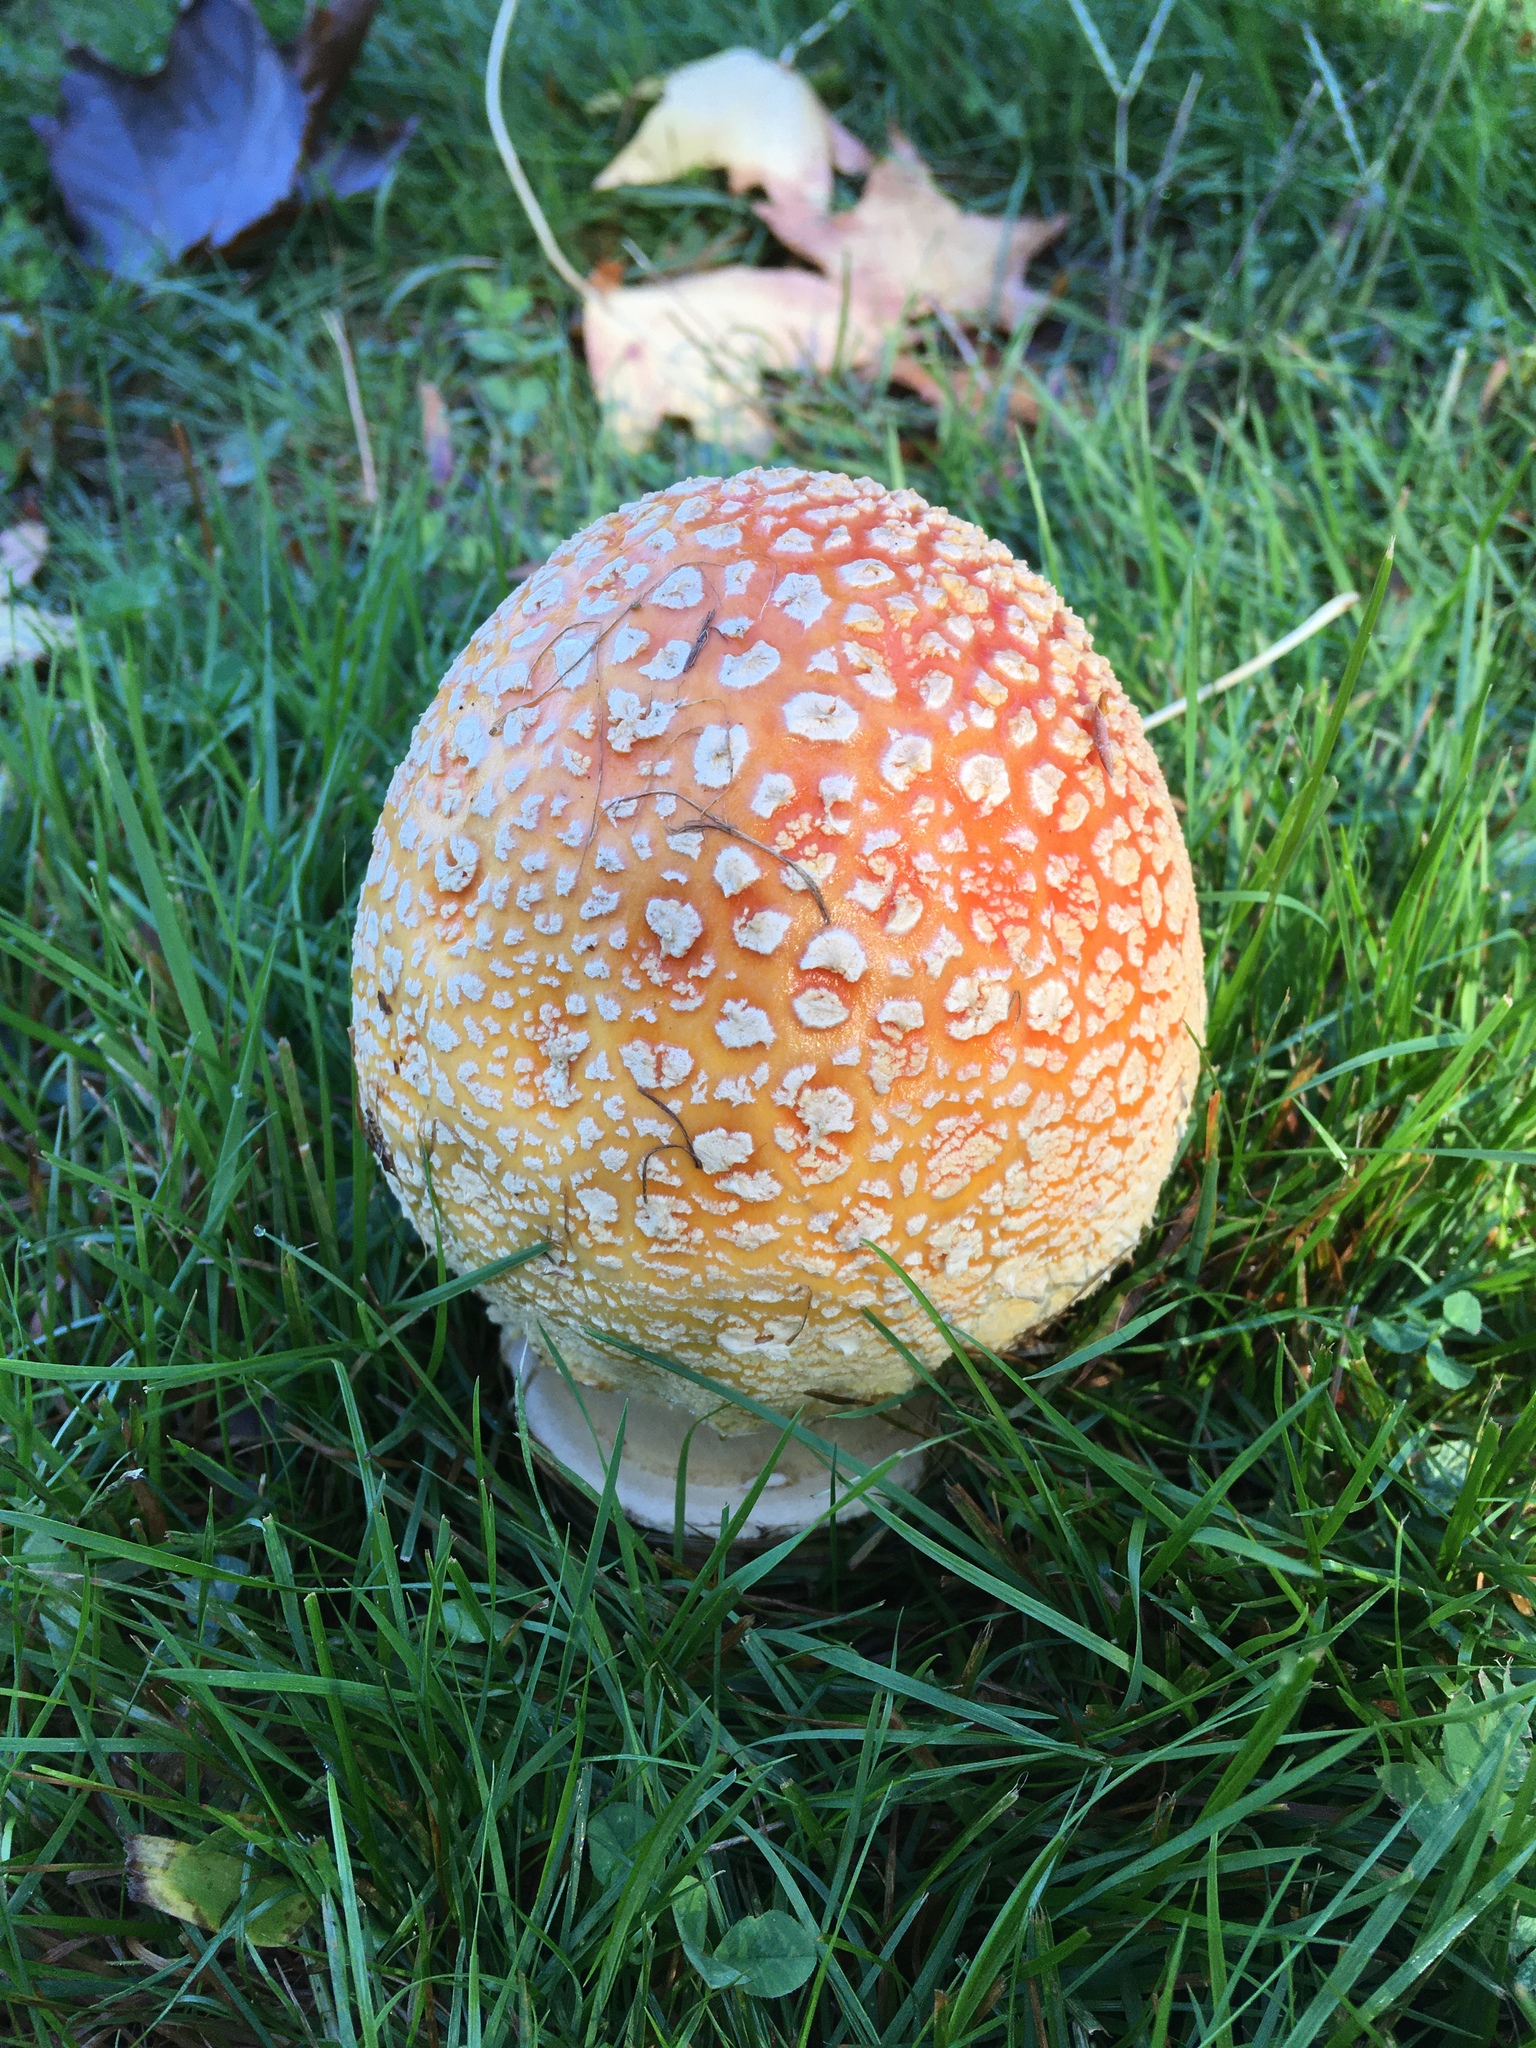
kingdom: Fungi
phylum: Basidiomycota
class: Agaricomycetes
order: Agaricales
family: Amanitaceae
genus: Amanita
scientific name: Amanita muscaria
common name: Fly agaric
